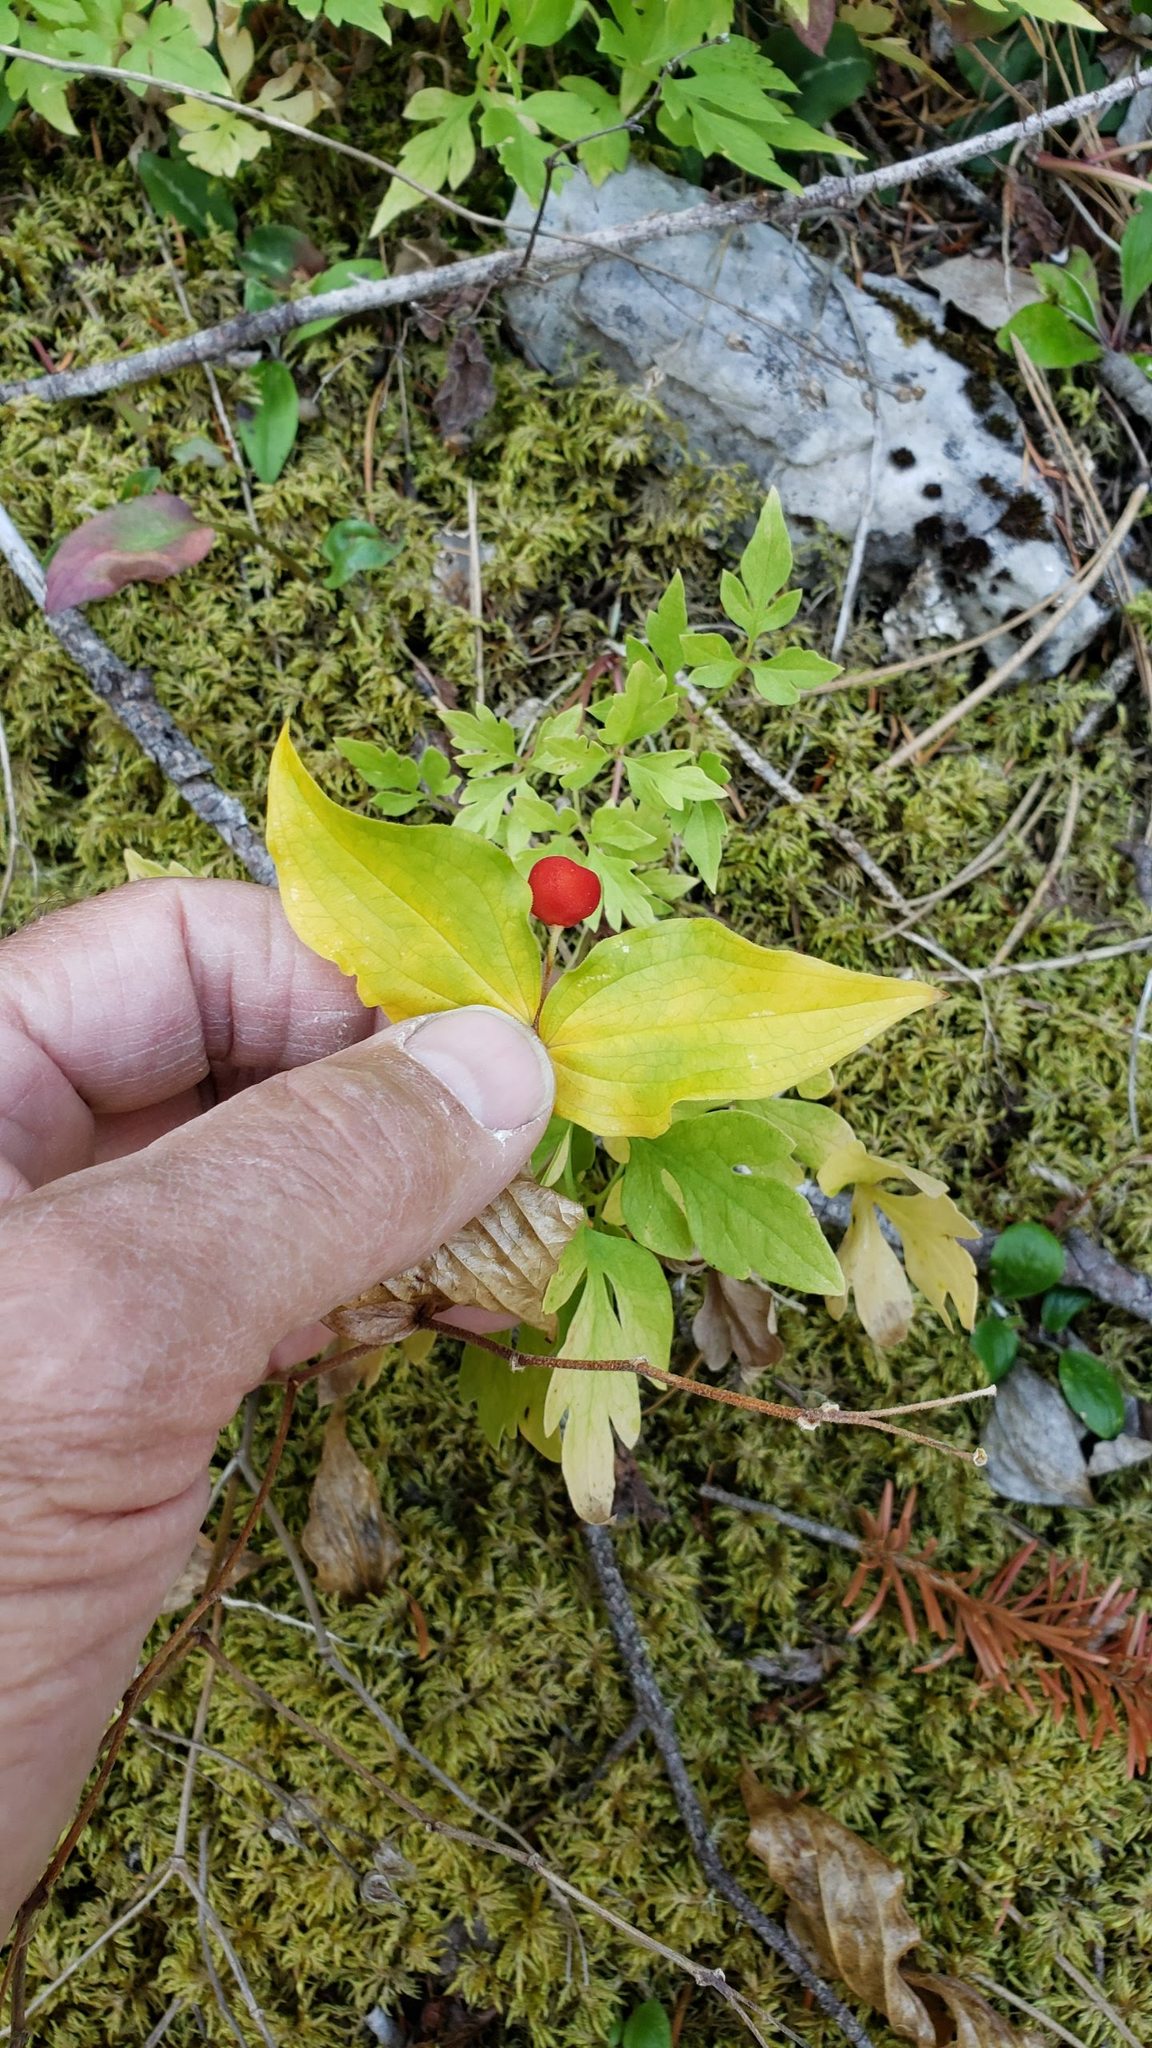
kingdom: Plantae
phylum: Tracheophyta
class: Liliopsida
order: Liliales
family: Liliaceae
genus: Prosartes
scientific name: Prosartes trachycarpa
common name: Rough-fruit fairy-bells
